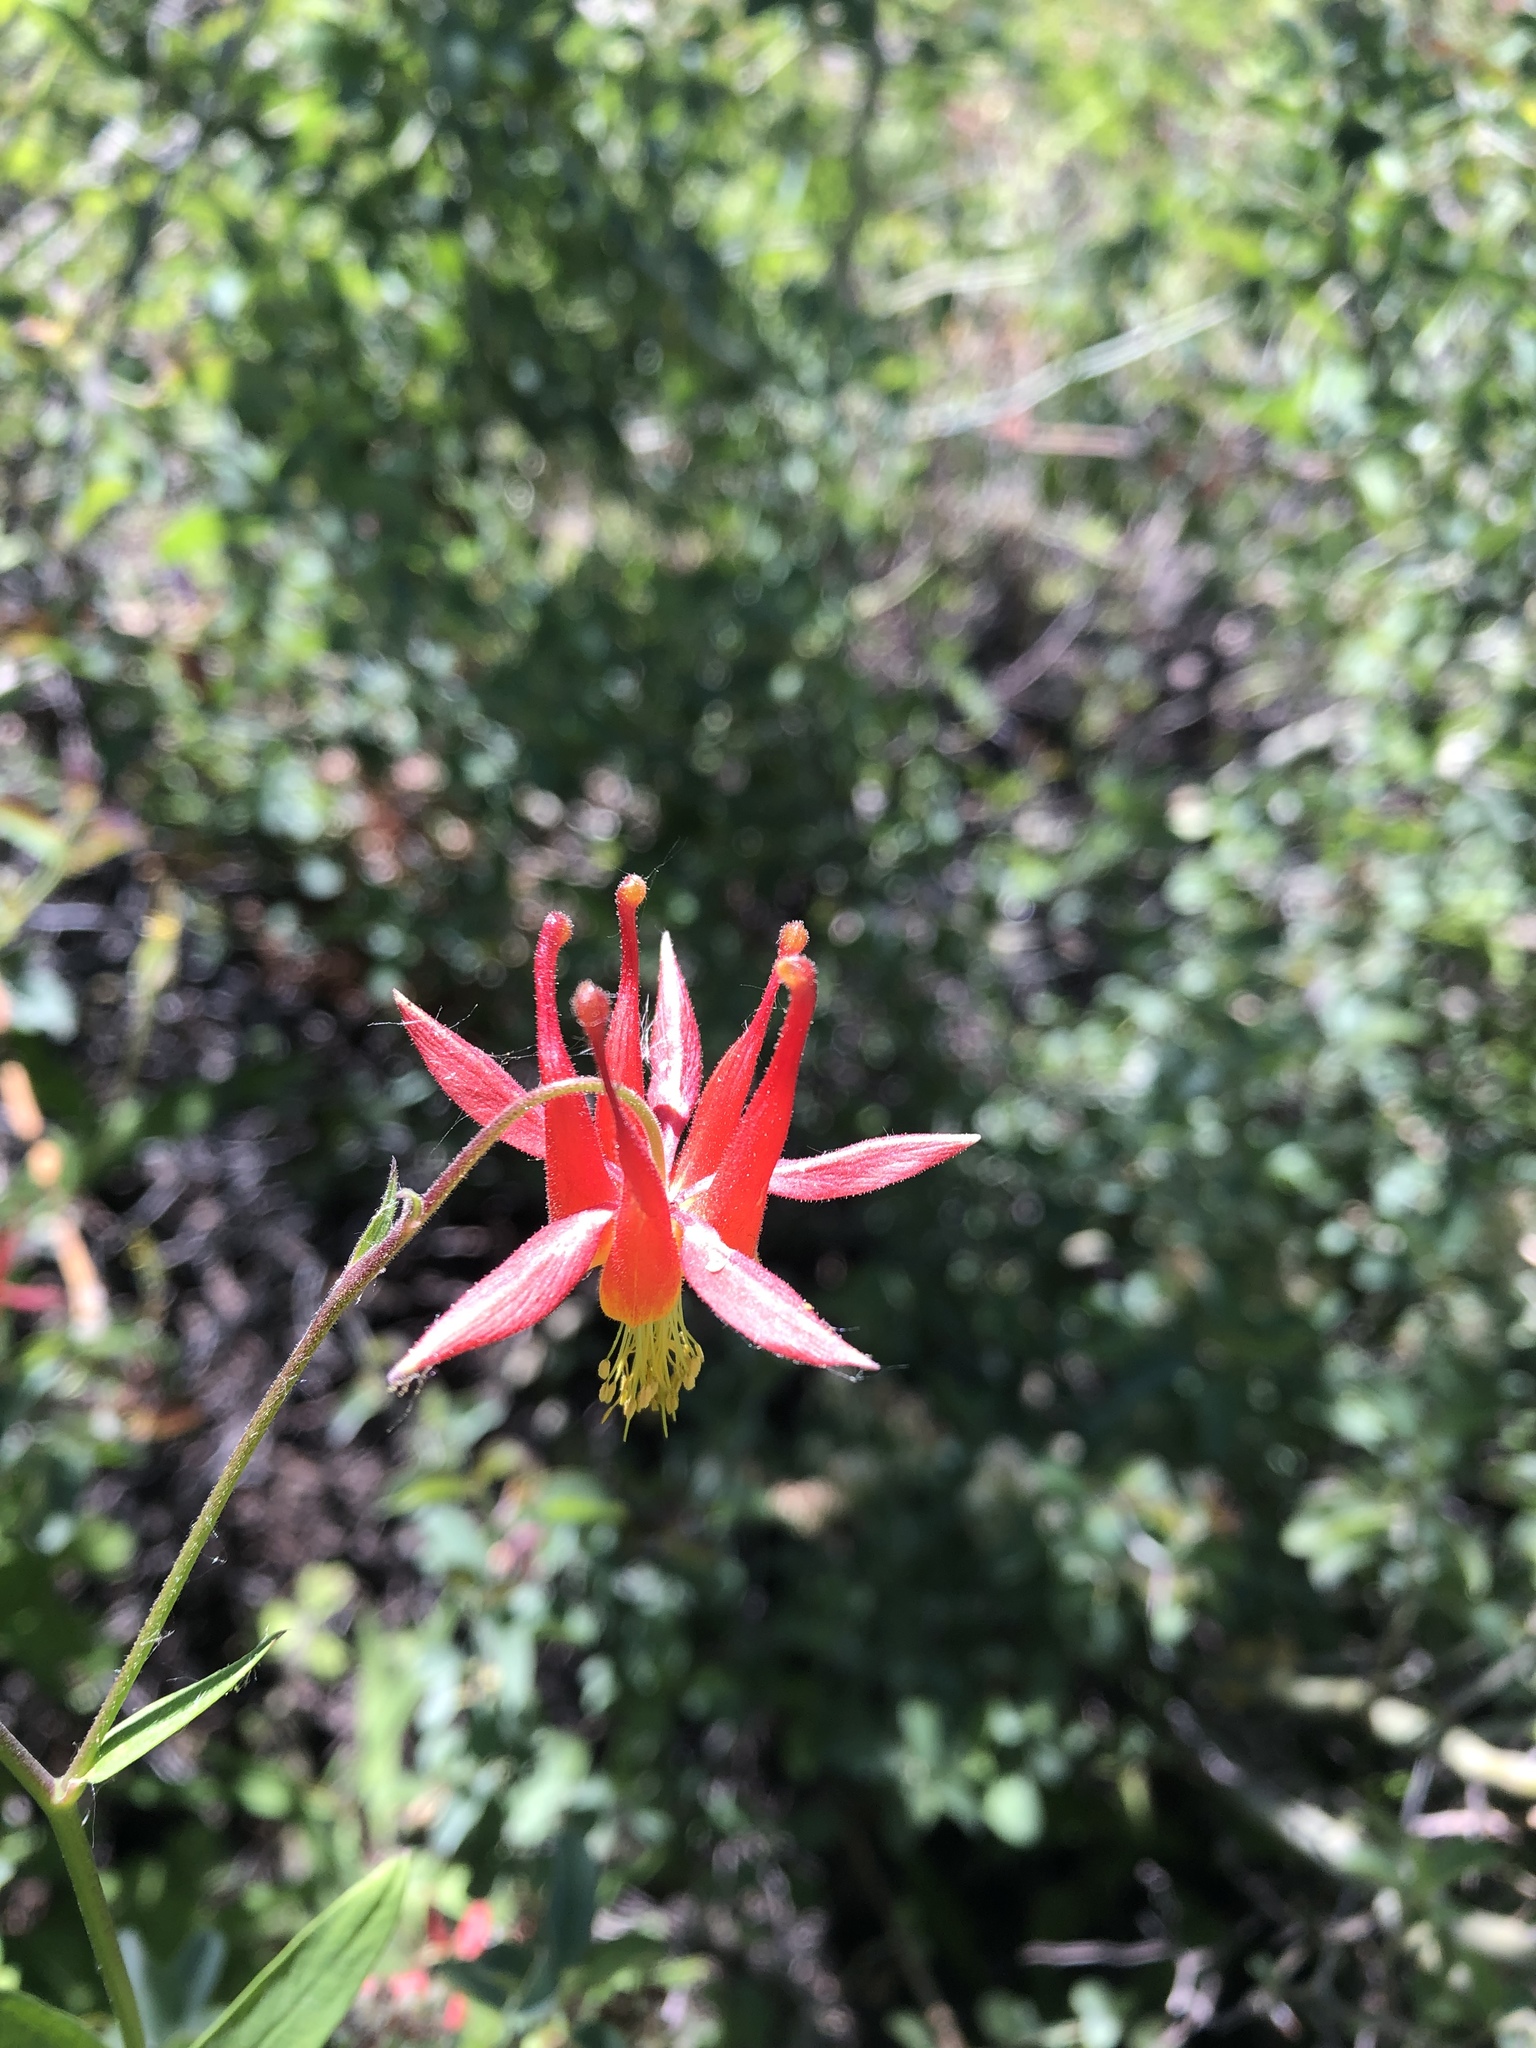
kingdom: Plantae
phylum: Tracheophyta
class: Magnoliopsida
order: Ranunculales
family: Ranunculaceae
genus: Aquilegia
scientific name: Aquilegia formosa
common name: Sitka columbine
